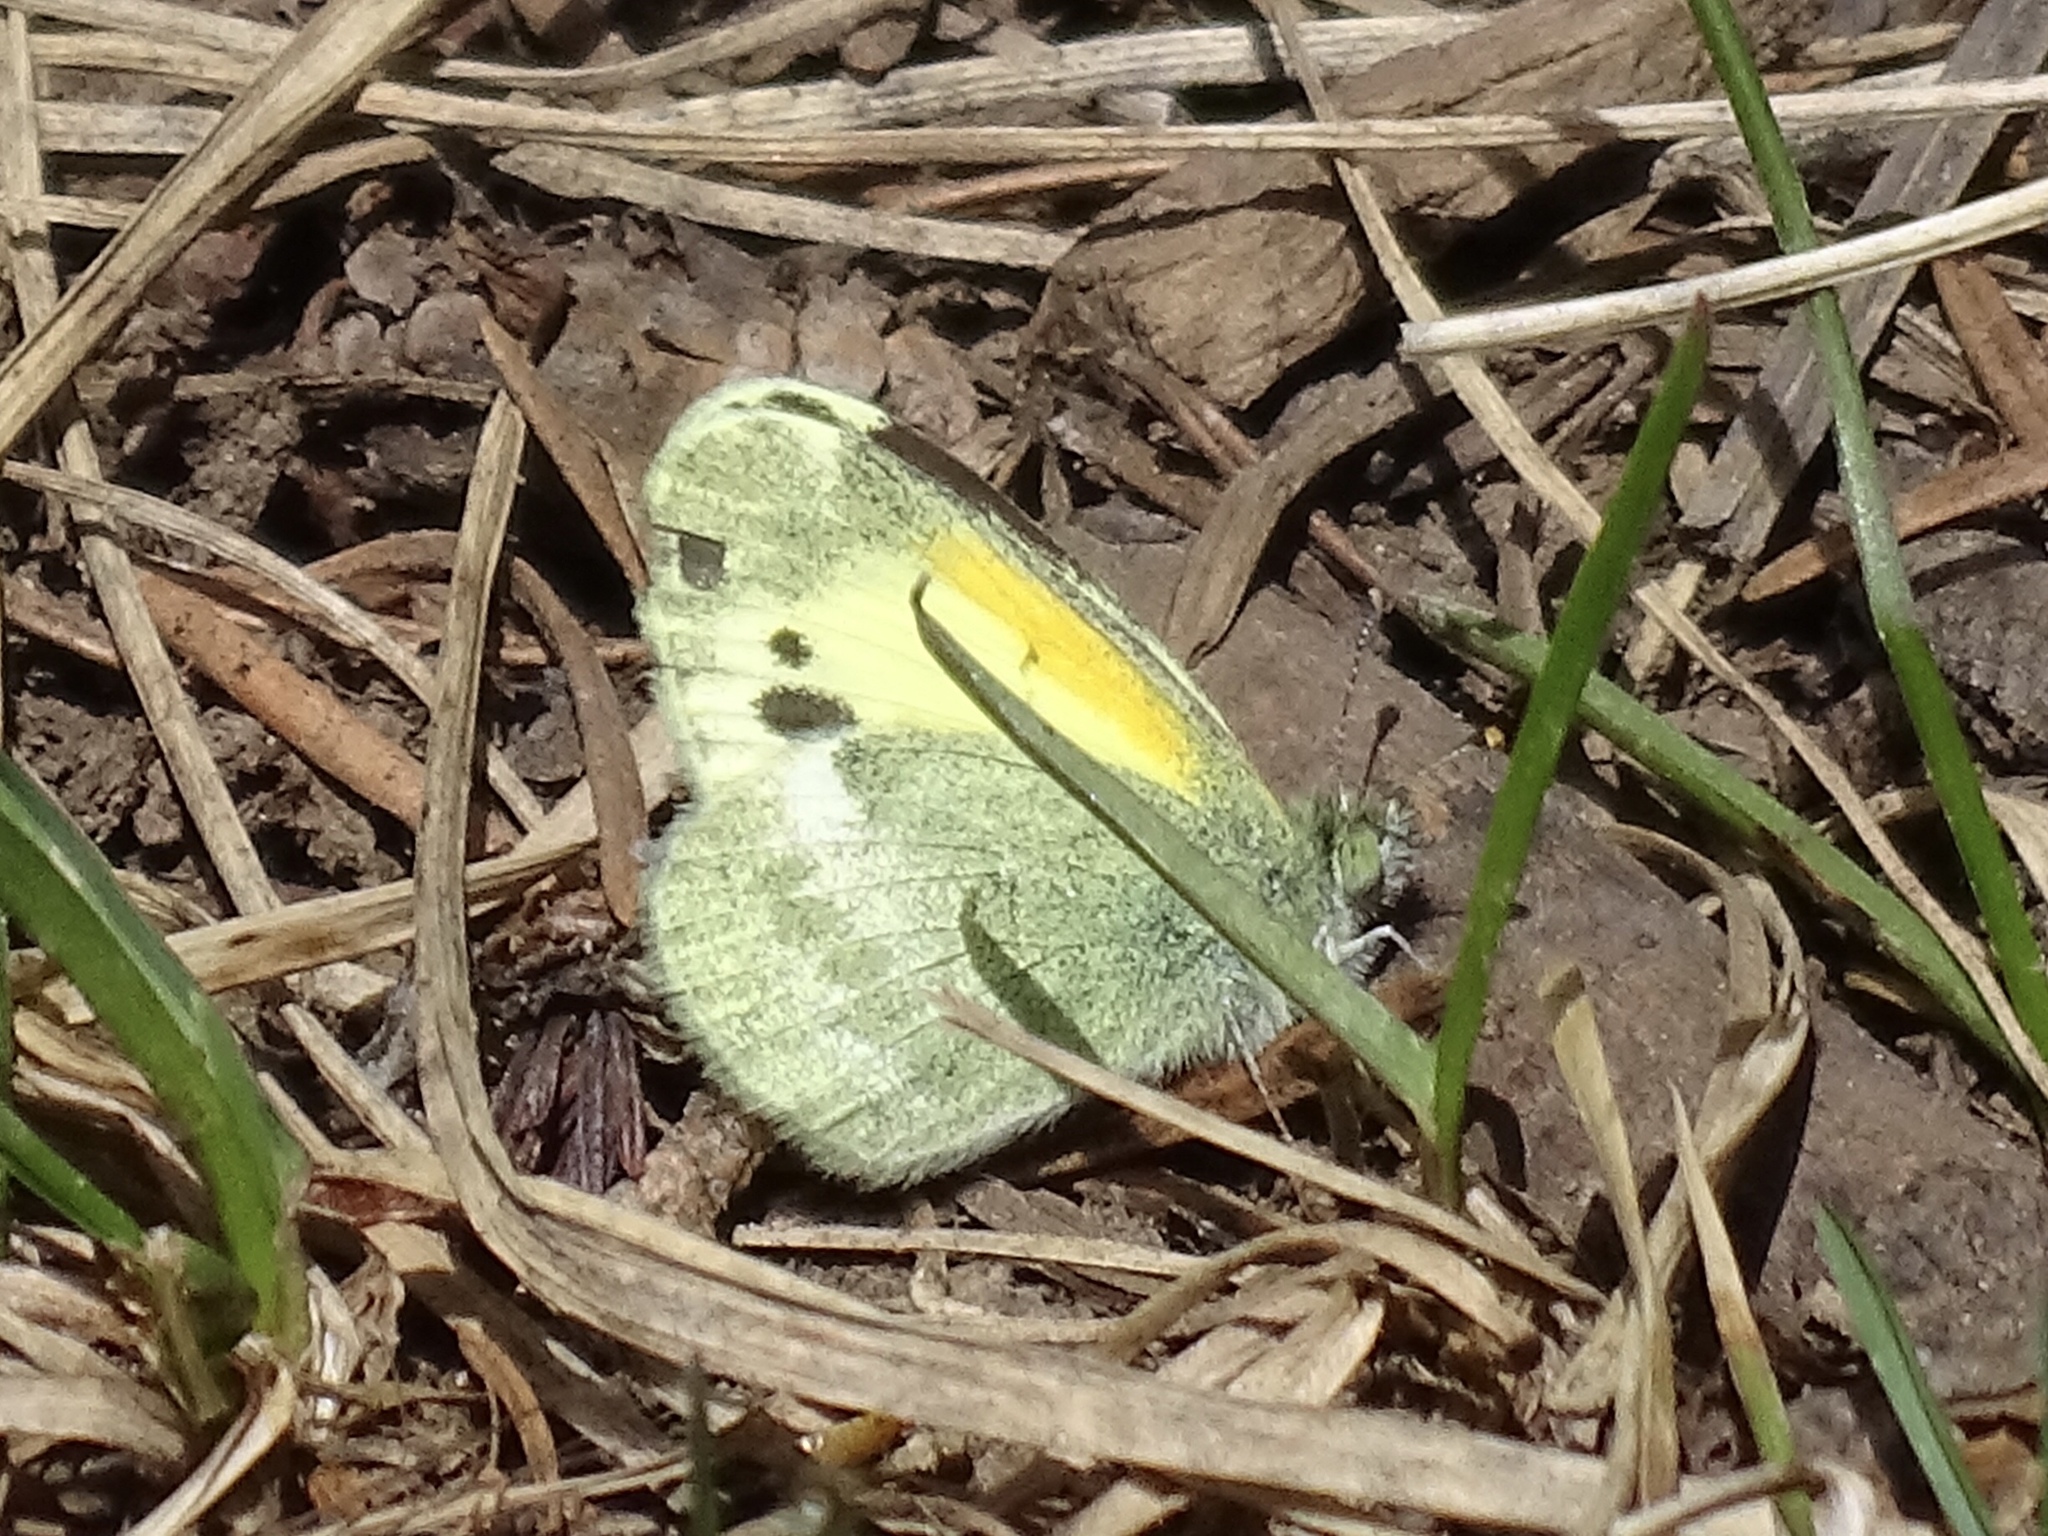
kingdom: Animalia
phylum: Arthropoda
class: Insecta
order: Lepidoptera
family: Pieridae
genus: Nathalis
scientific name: Nathalis iole
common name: Dainty sulphur
